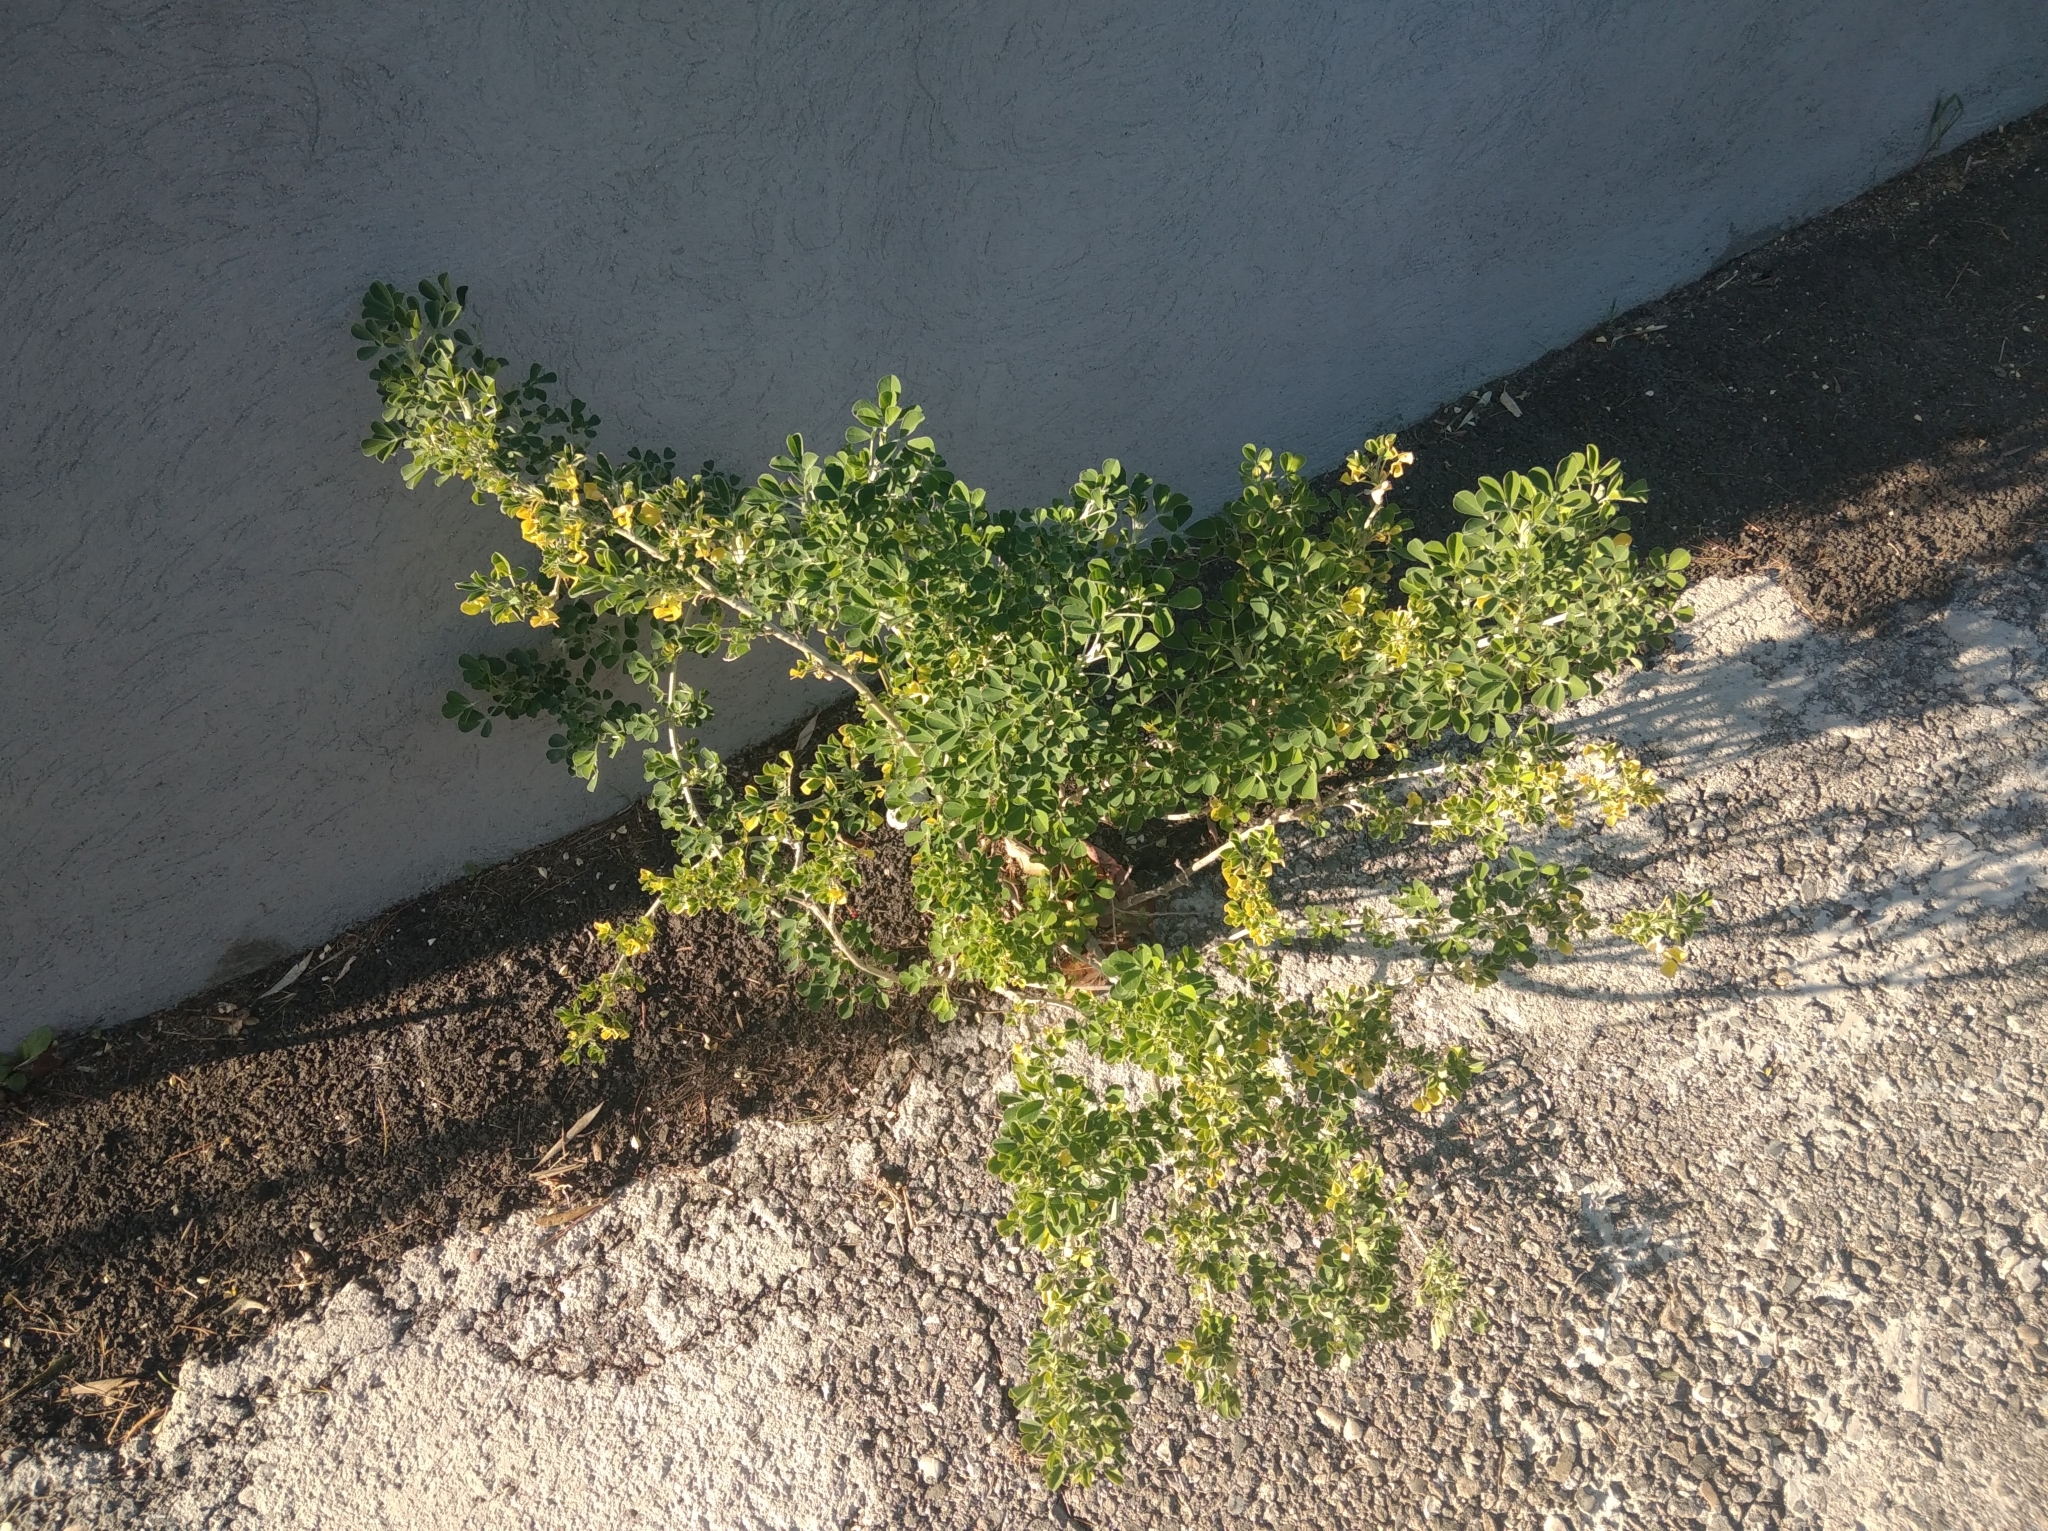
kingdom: Plantae
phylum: Tracheophyta
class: Magnoliopsida
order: Fabales
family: Fabaceae
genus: Medicago
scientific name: Medicago arborea
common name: Moon trefoil
